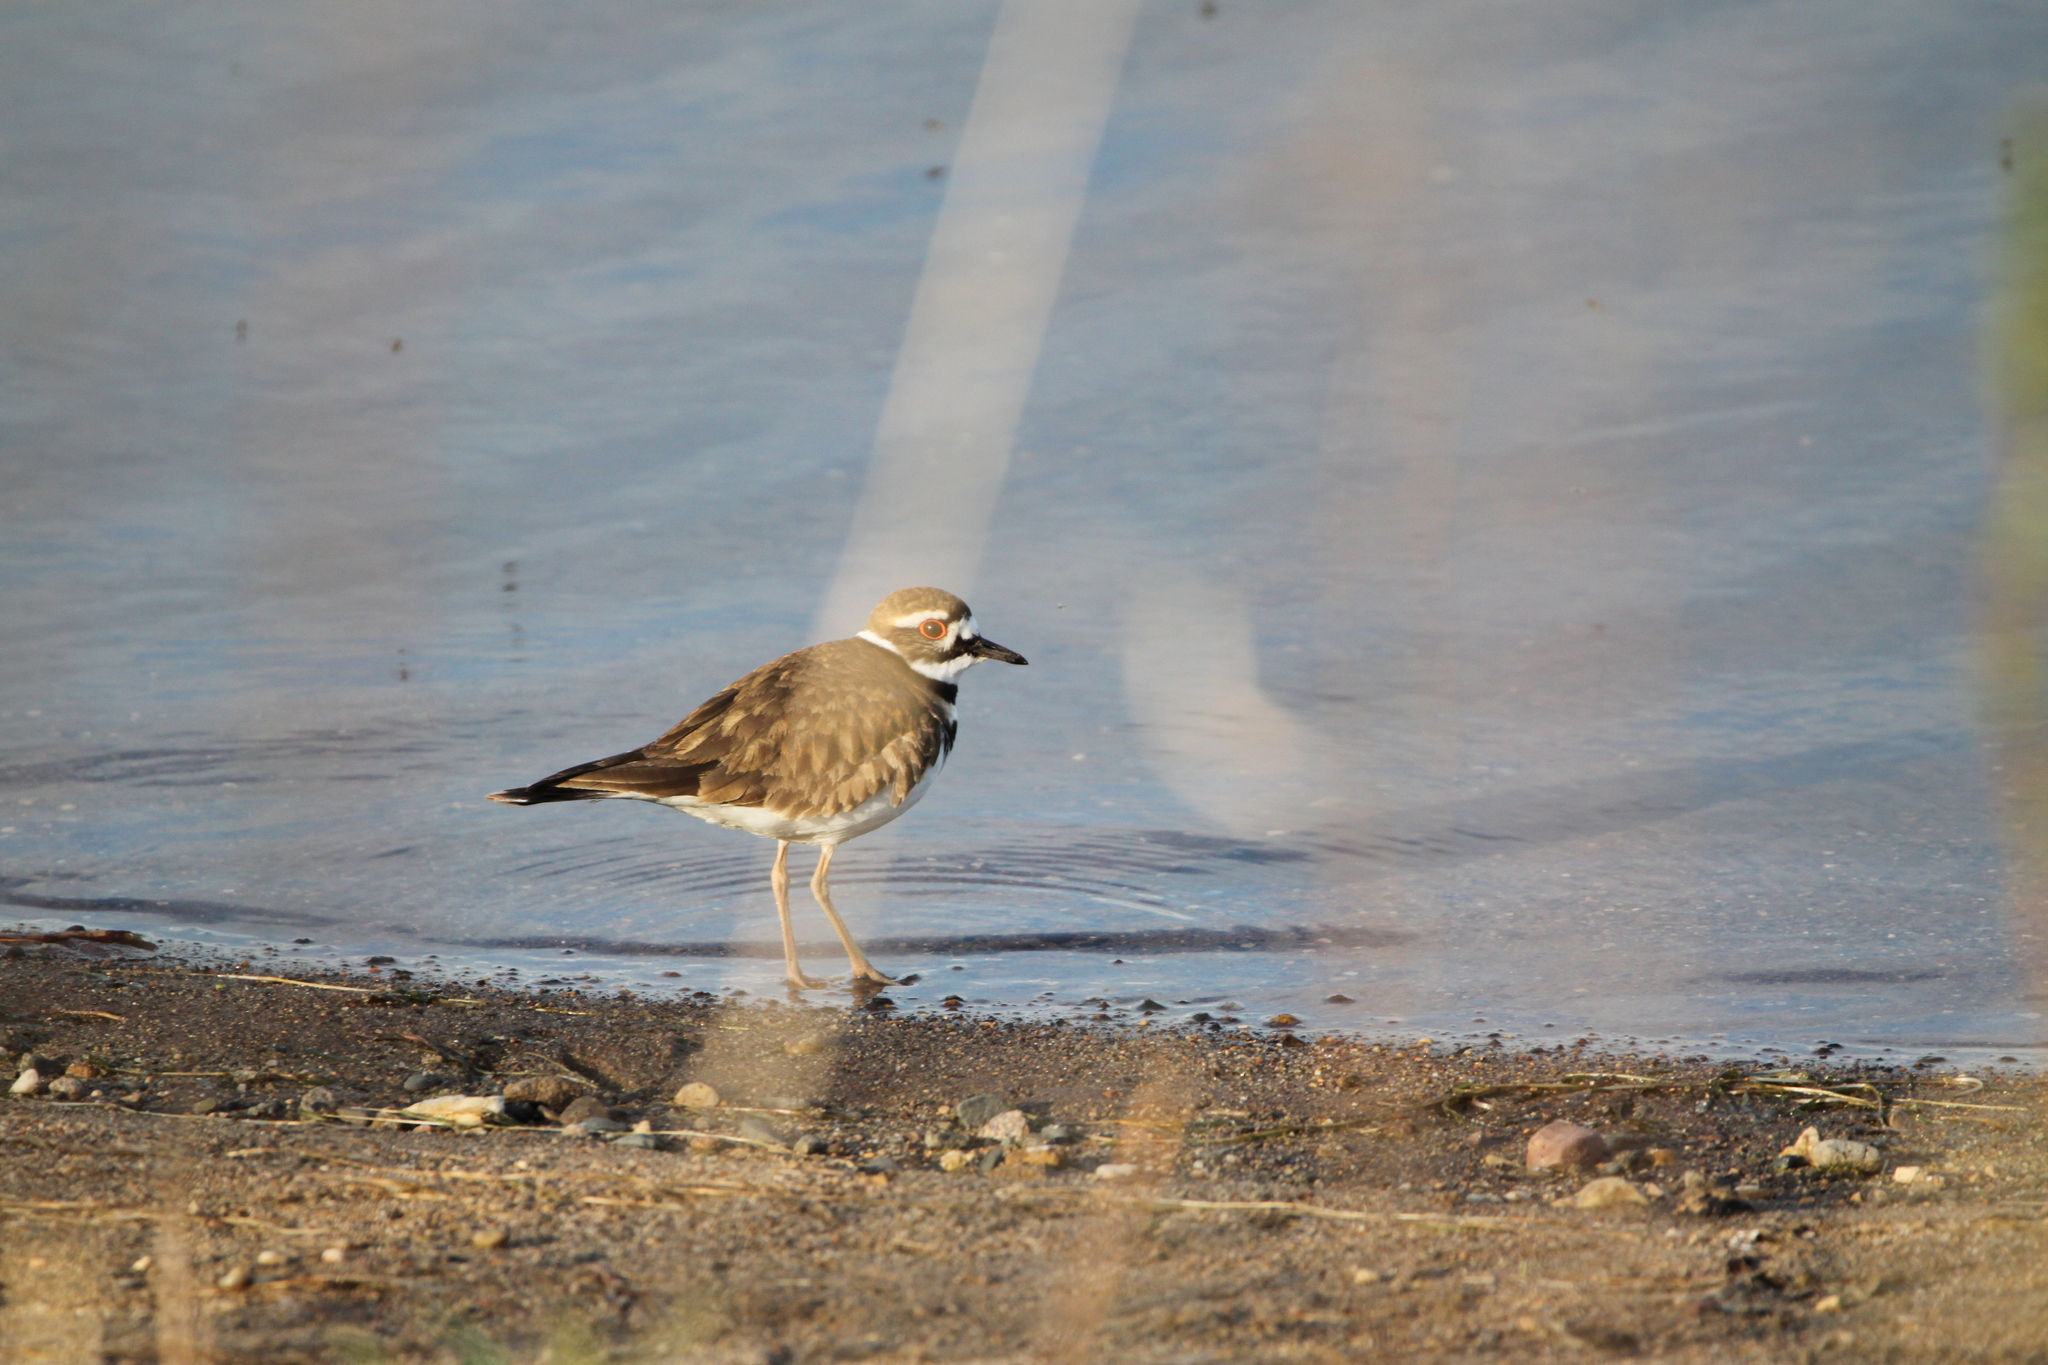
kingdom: Animalia
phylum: Chordata
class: Aves
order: Charadriiformes
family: Charadriidae
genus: Charadrius
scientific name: Charadrius vociferus
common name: Killdeer
